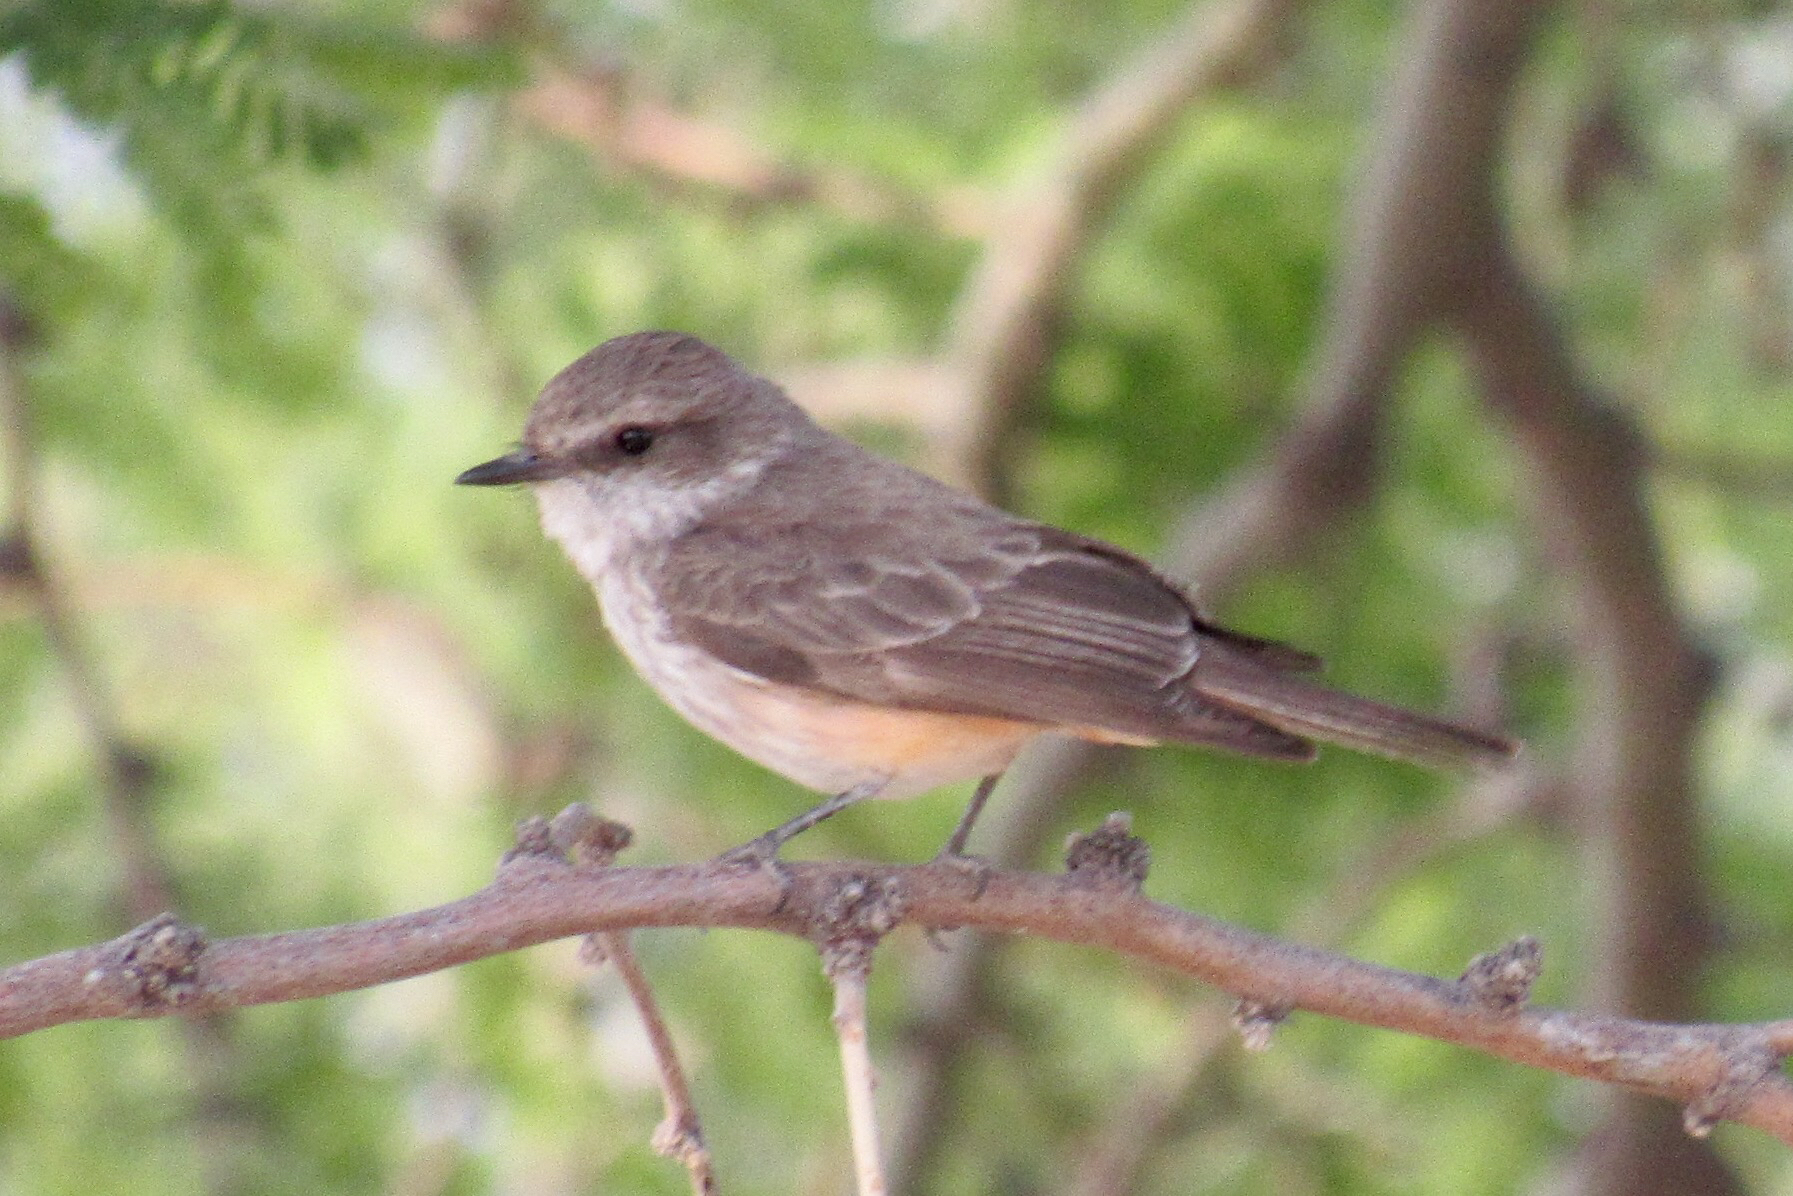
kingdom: Animalia
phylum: Chordata
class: Aves
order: Passeriformes
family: Tyrannidae
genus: Pyrocephalus
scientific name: Pyrocephalus rubinus
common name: Vermilion flycatcher
